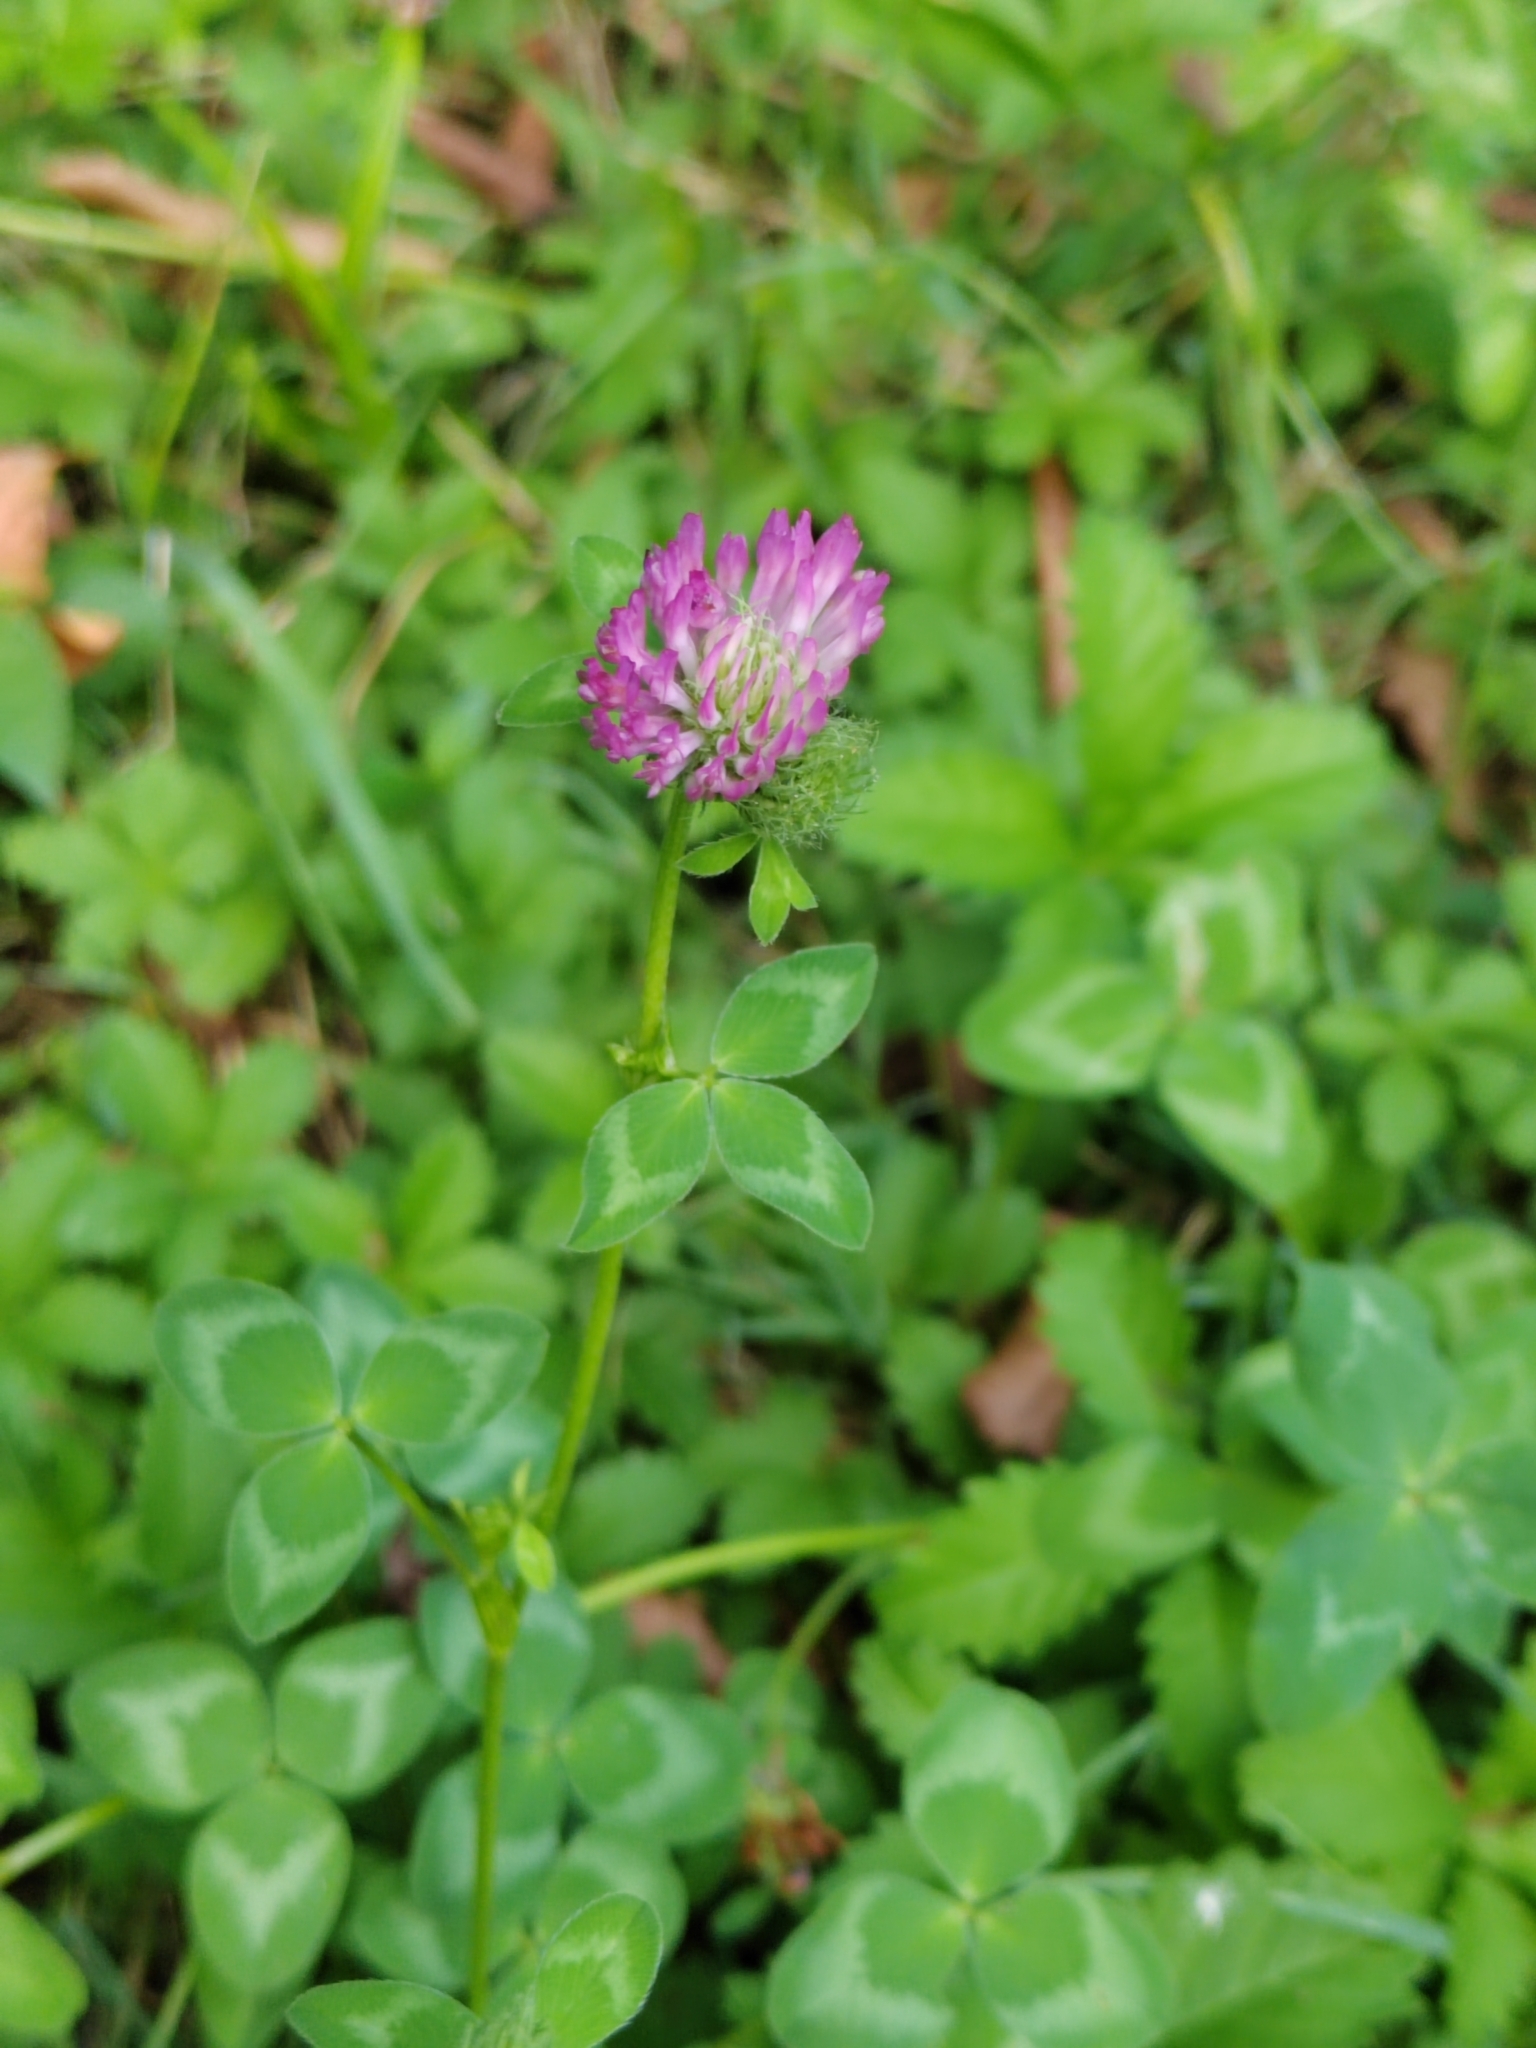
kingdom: Plantae
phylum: Tracheophyta
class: Magnoliopsida
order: Fabales
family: Fabaceae
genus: Trifolium
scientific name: Trifolium pratense
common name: Red clover
